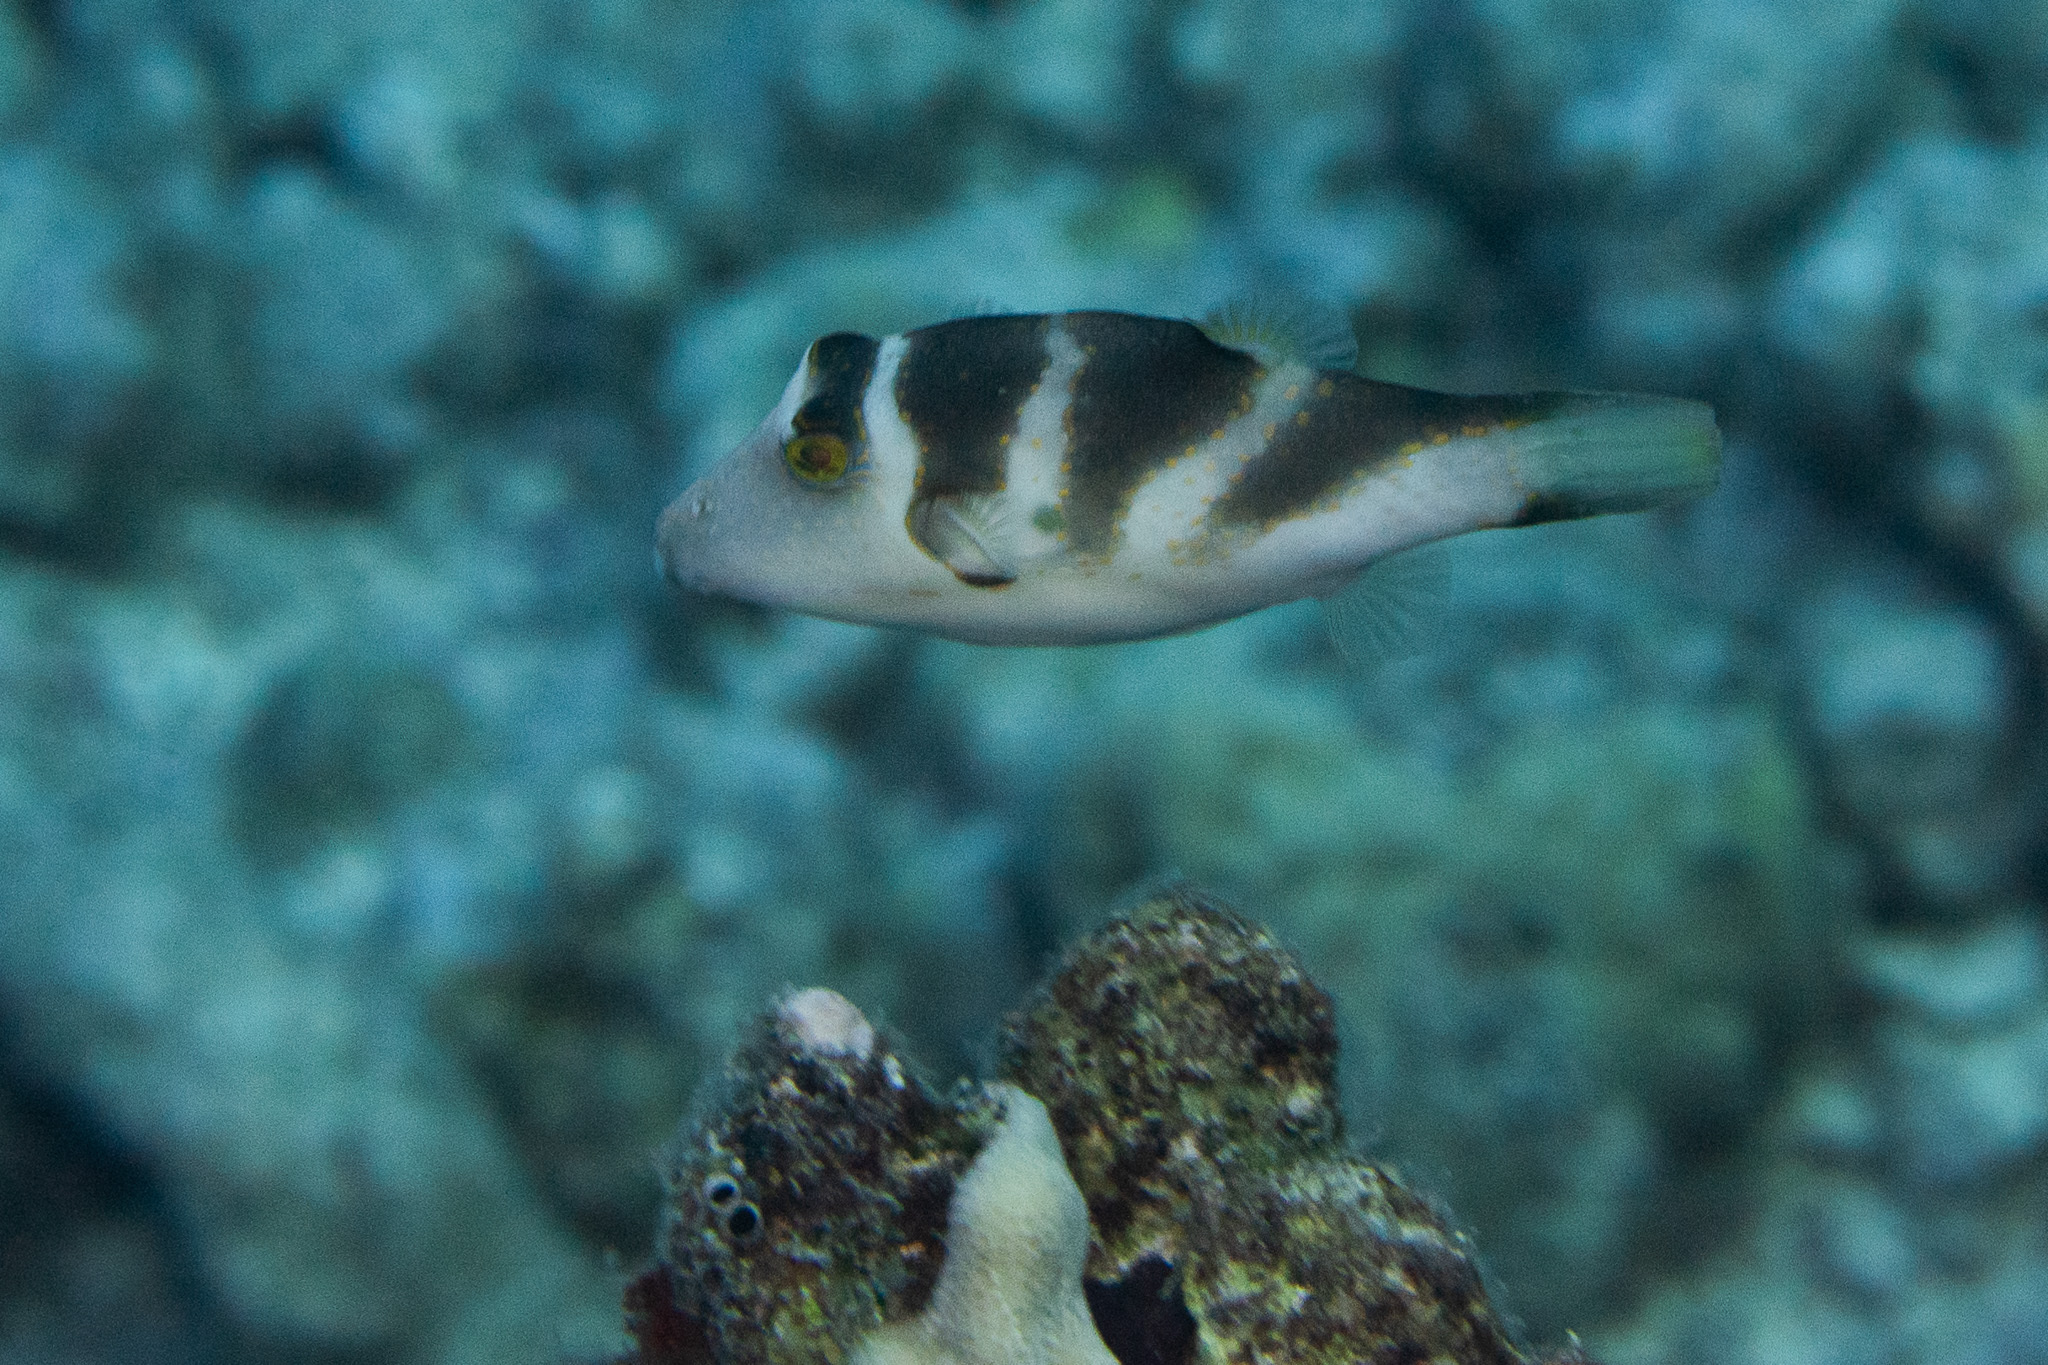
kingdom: Animalia
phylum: Chordata
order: Tetraodontiformes
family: Tetraodontidae
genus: Canthigaster
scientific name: Canthigaster coronata
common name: Crown toby
